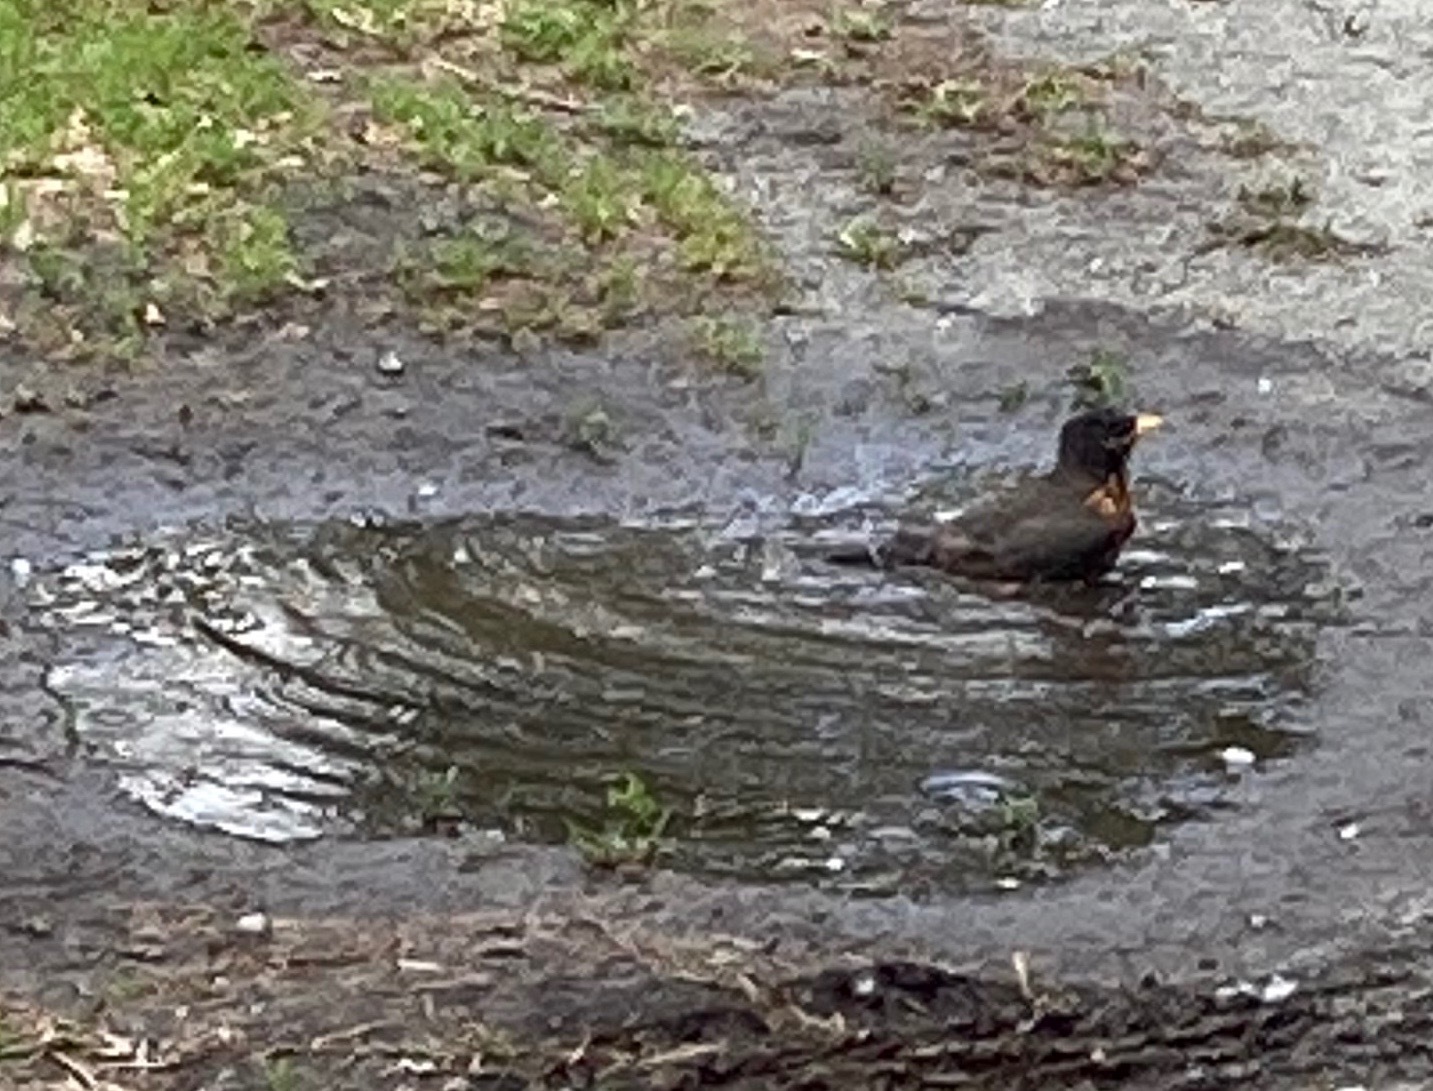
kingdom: Animalia
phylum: Chordata
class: Aves
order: Passeriformes
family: Turdidae
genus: Turdus
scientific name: Turdus migratorius
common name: American robin
